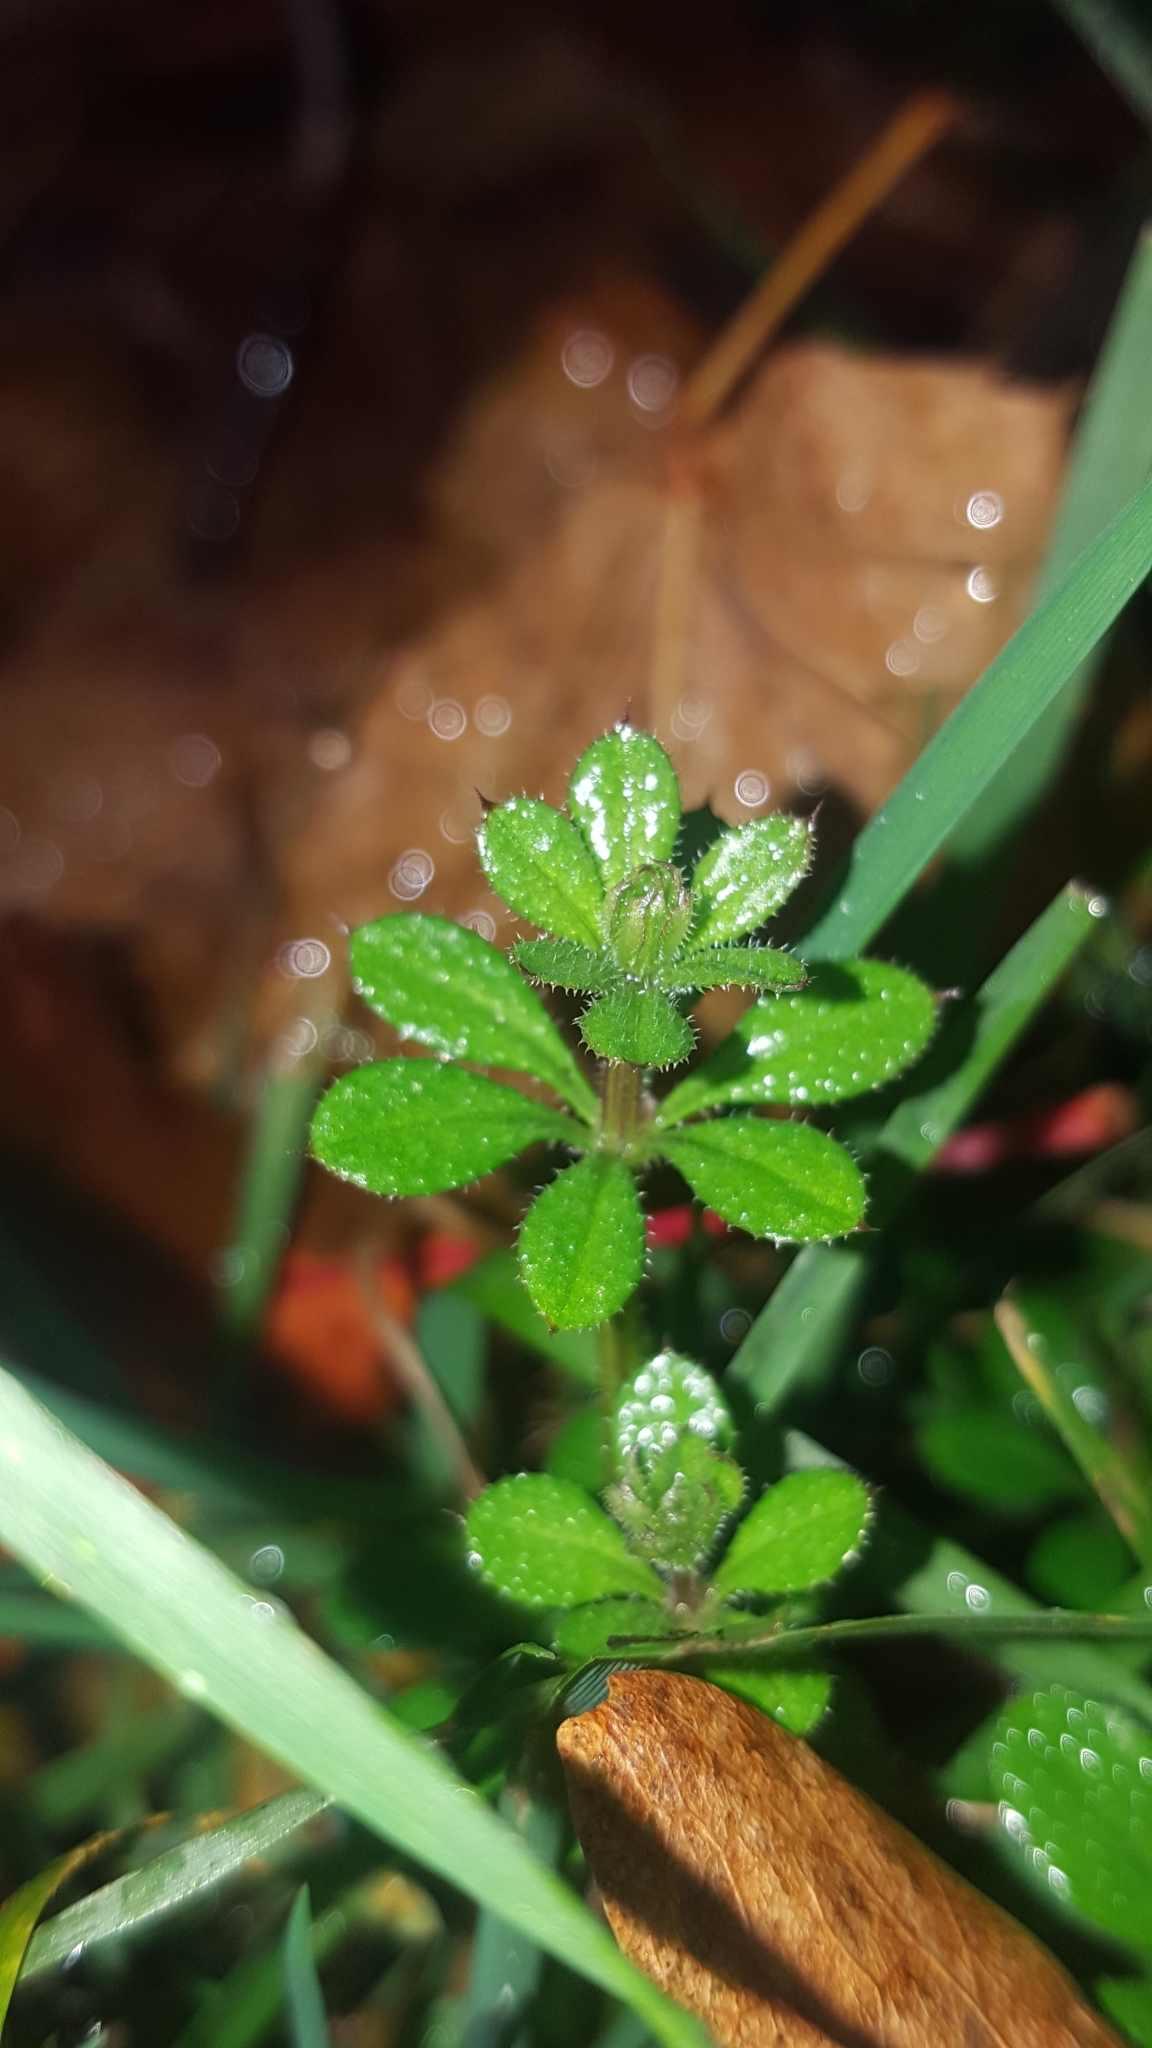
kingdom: Plantae
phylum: Tracheophyta
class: Magnoliopsida
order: Gentianales
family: Rubiaceae
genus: Galium
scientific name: Galium aparine
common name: Cleavers
